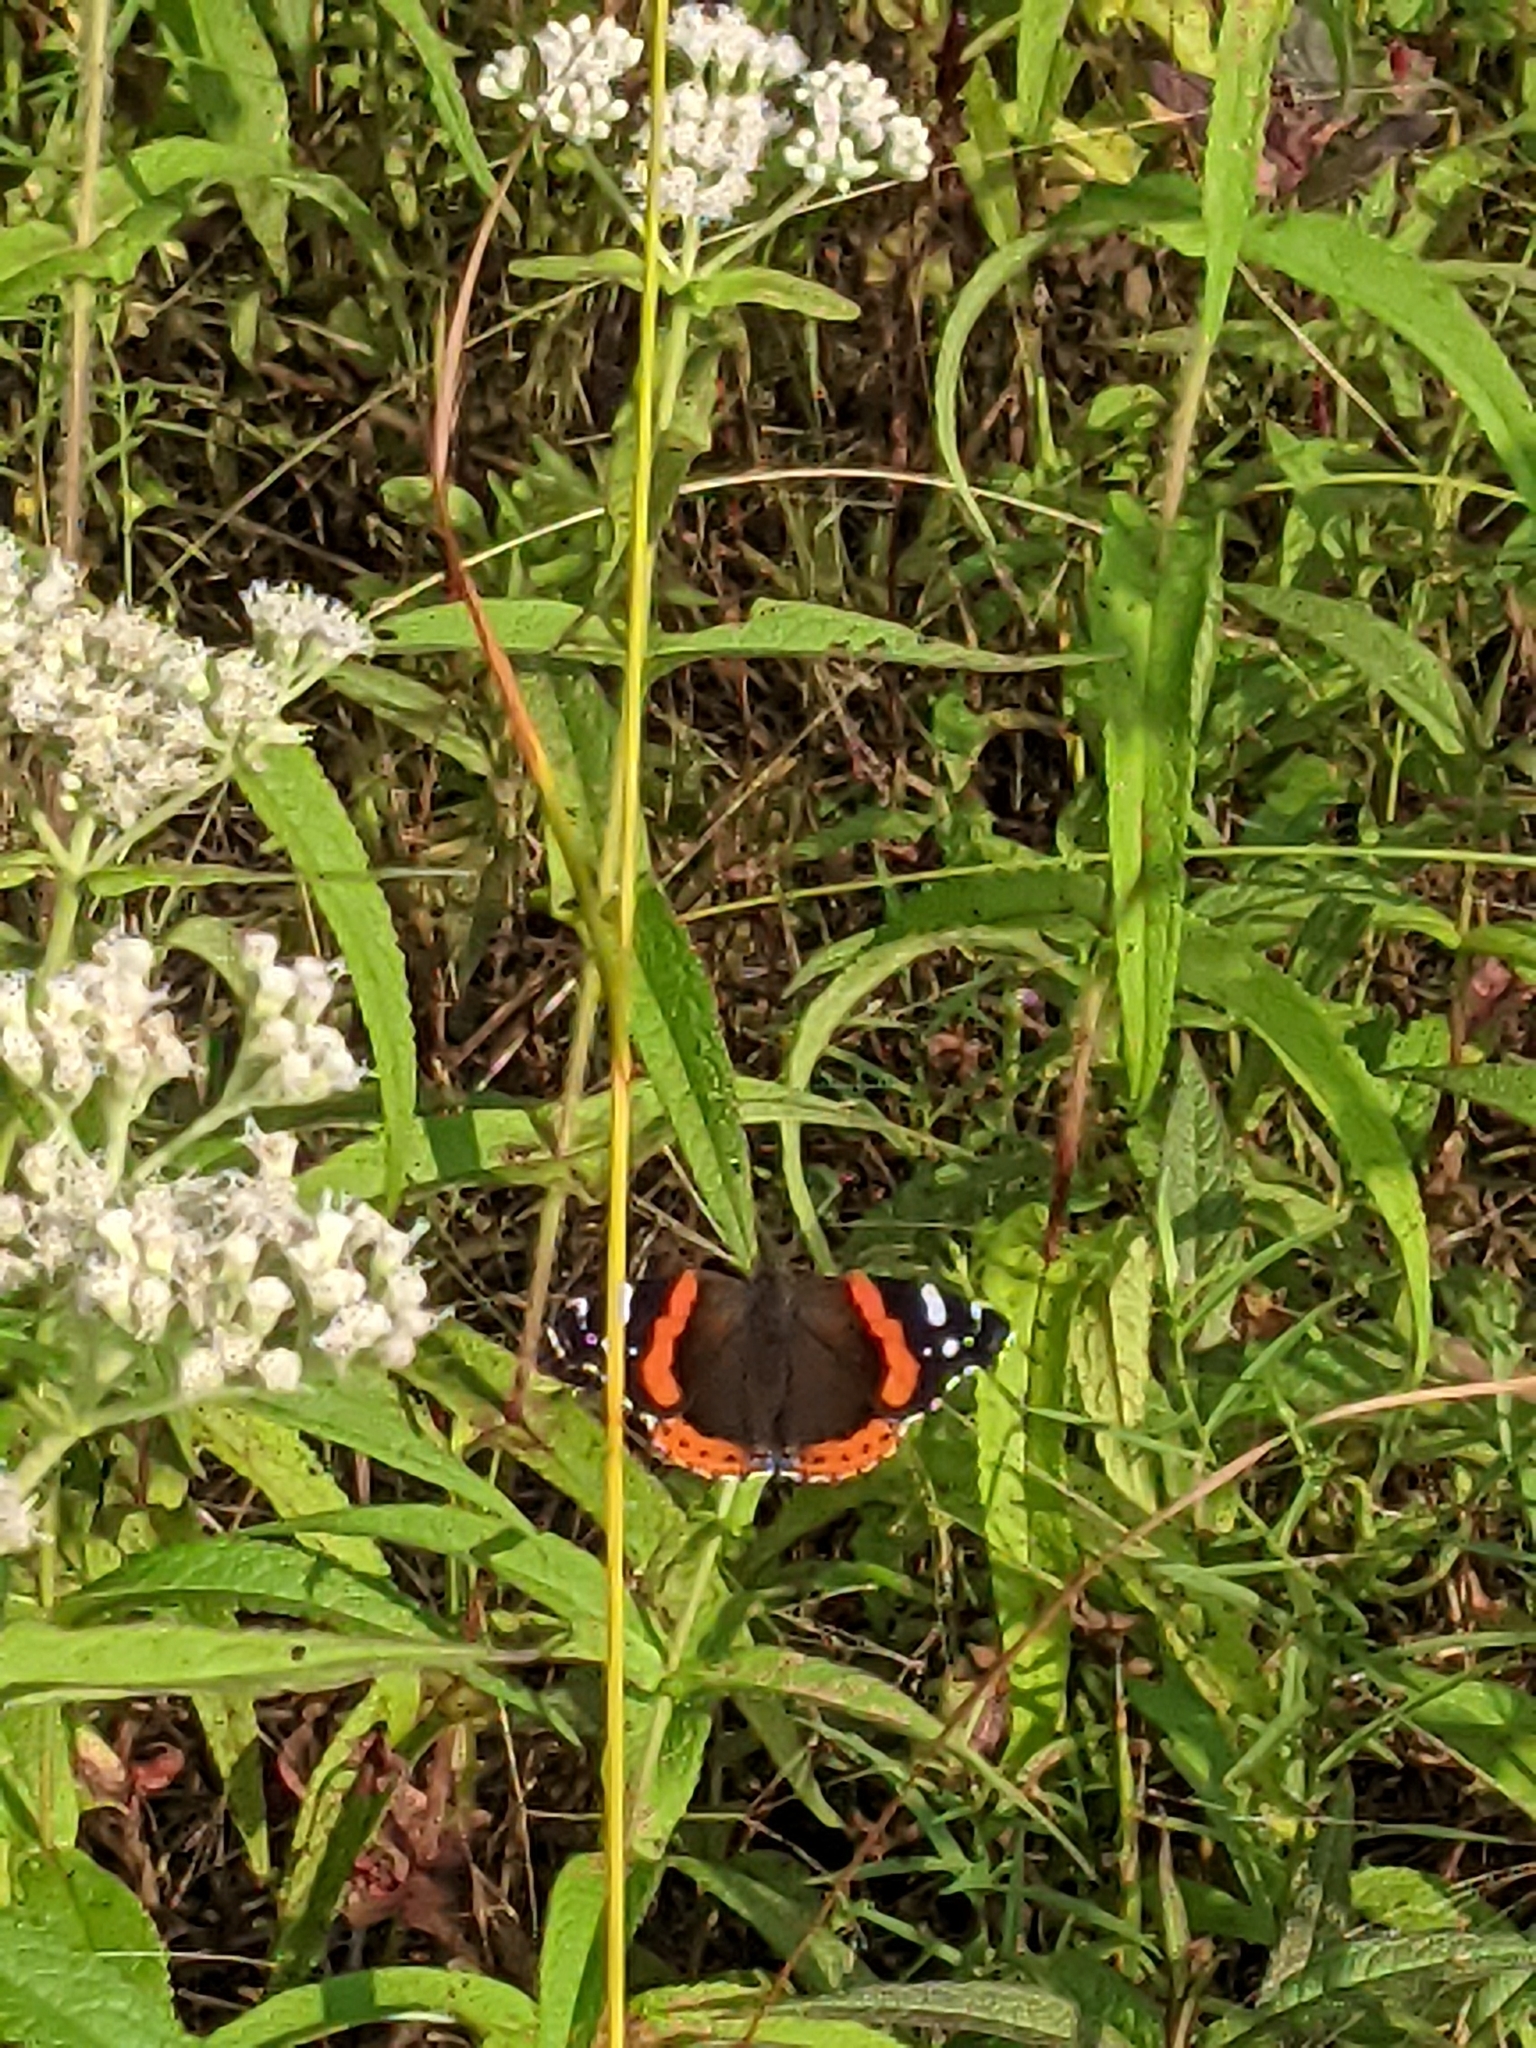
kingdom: Animalia
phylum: Arthropoda
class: Insecta
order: Lepidoptera
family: Nymphalidae
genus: Vanessa
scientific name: Vanessa atalanta
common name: Red admiral
